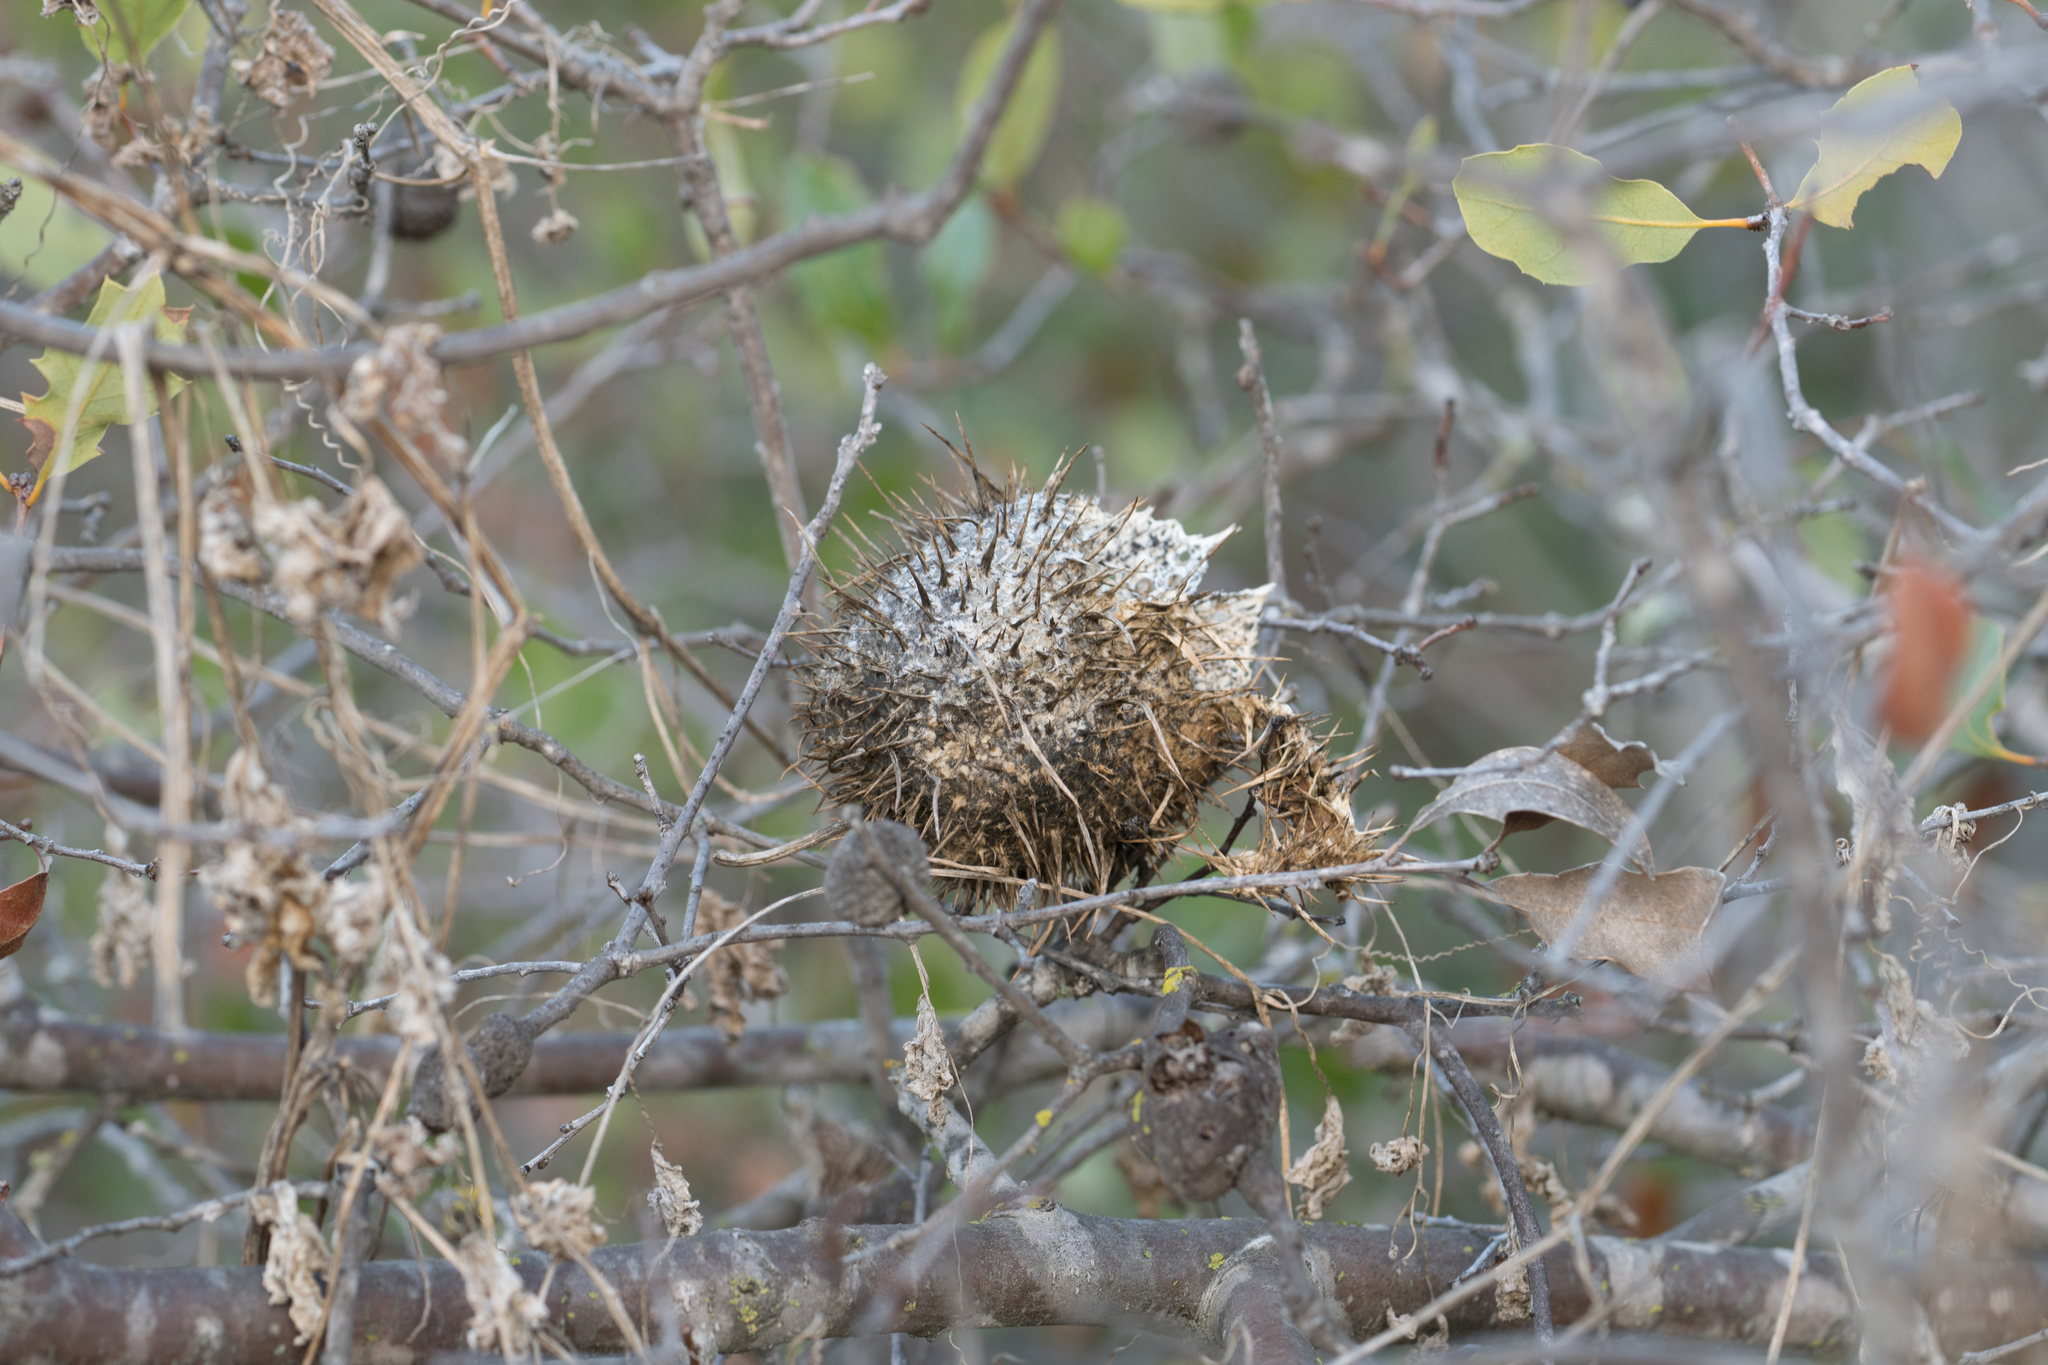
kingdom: Plantae
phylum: Tracheophyta
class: Magnoliopsida
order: Cucurbitales
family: Cucurbitaceae
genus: Marah
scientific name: Marah macrocarpa
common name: Cucamonga manroot
